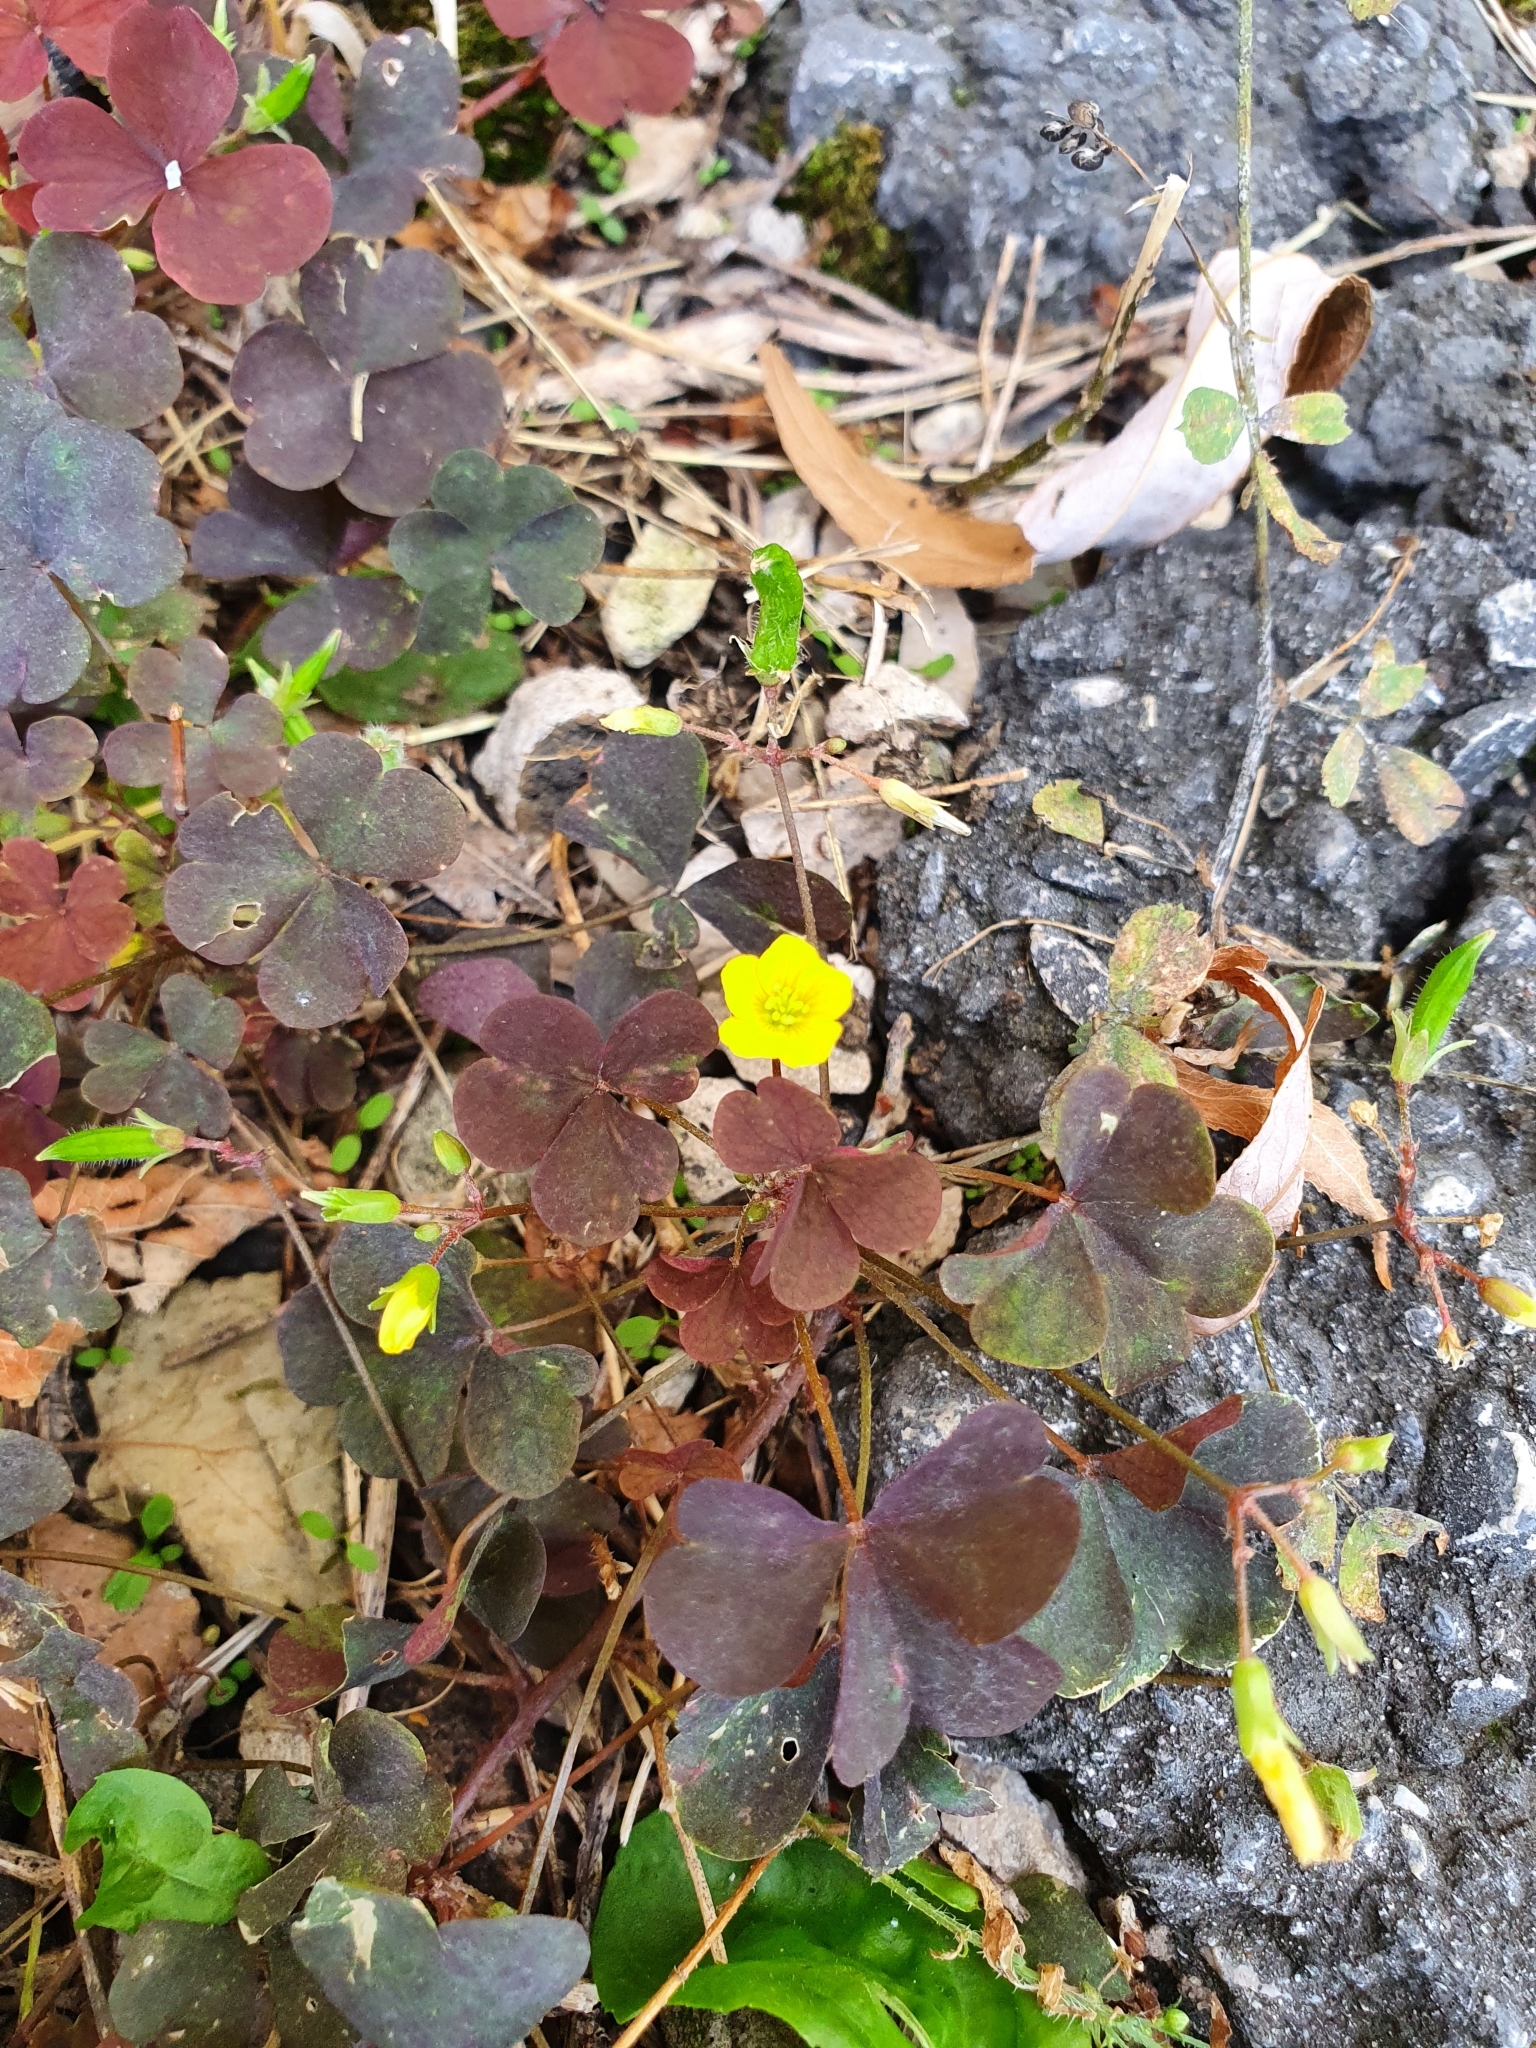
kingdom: Plantae
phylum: Tracheophyta
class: Magnoliopsida
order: Oxalidales
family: Oxalidaceae
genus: Oxalis
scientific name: Oxalis corniculata
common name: Procumbent yellow-sorrel
